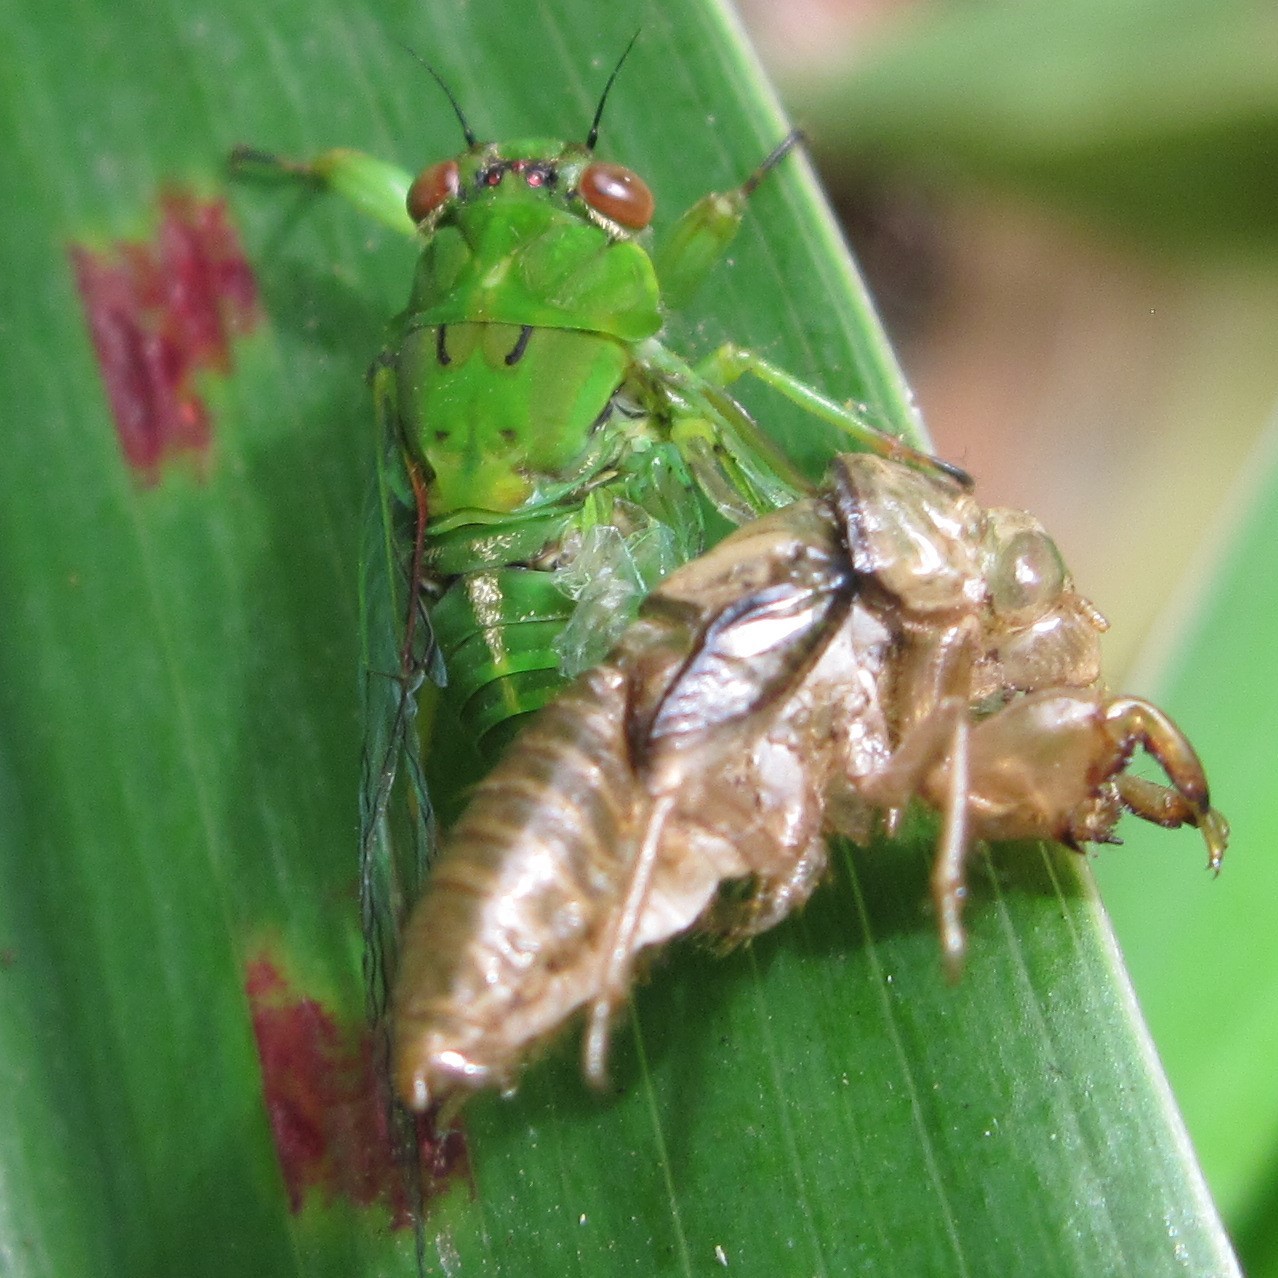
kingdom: Animalia
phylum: Arthropoda
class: Insecta
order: Hemiptera
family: Cicadidae
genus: Kikihia
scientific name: Kikihia ochrina
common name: April green cicada
